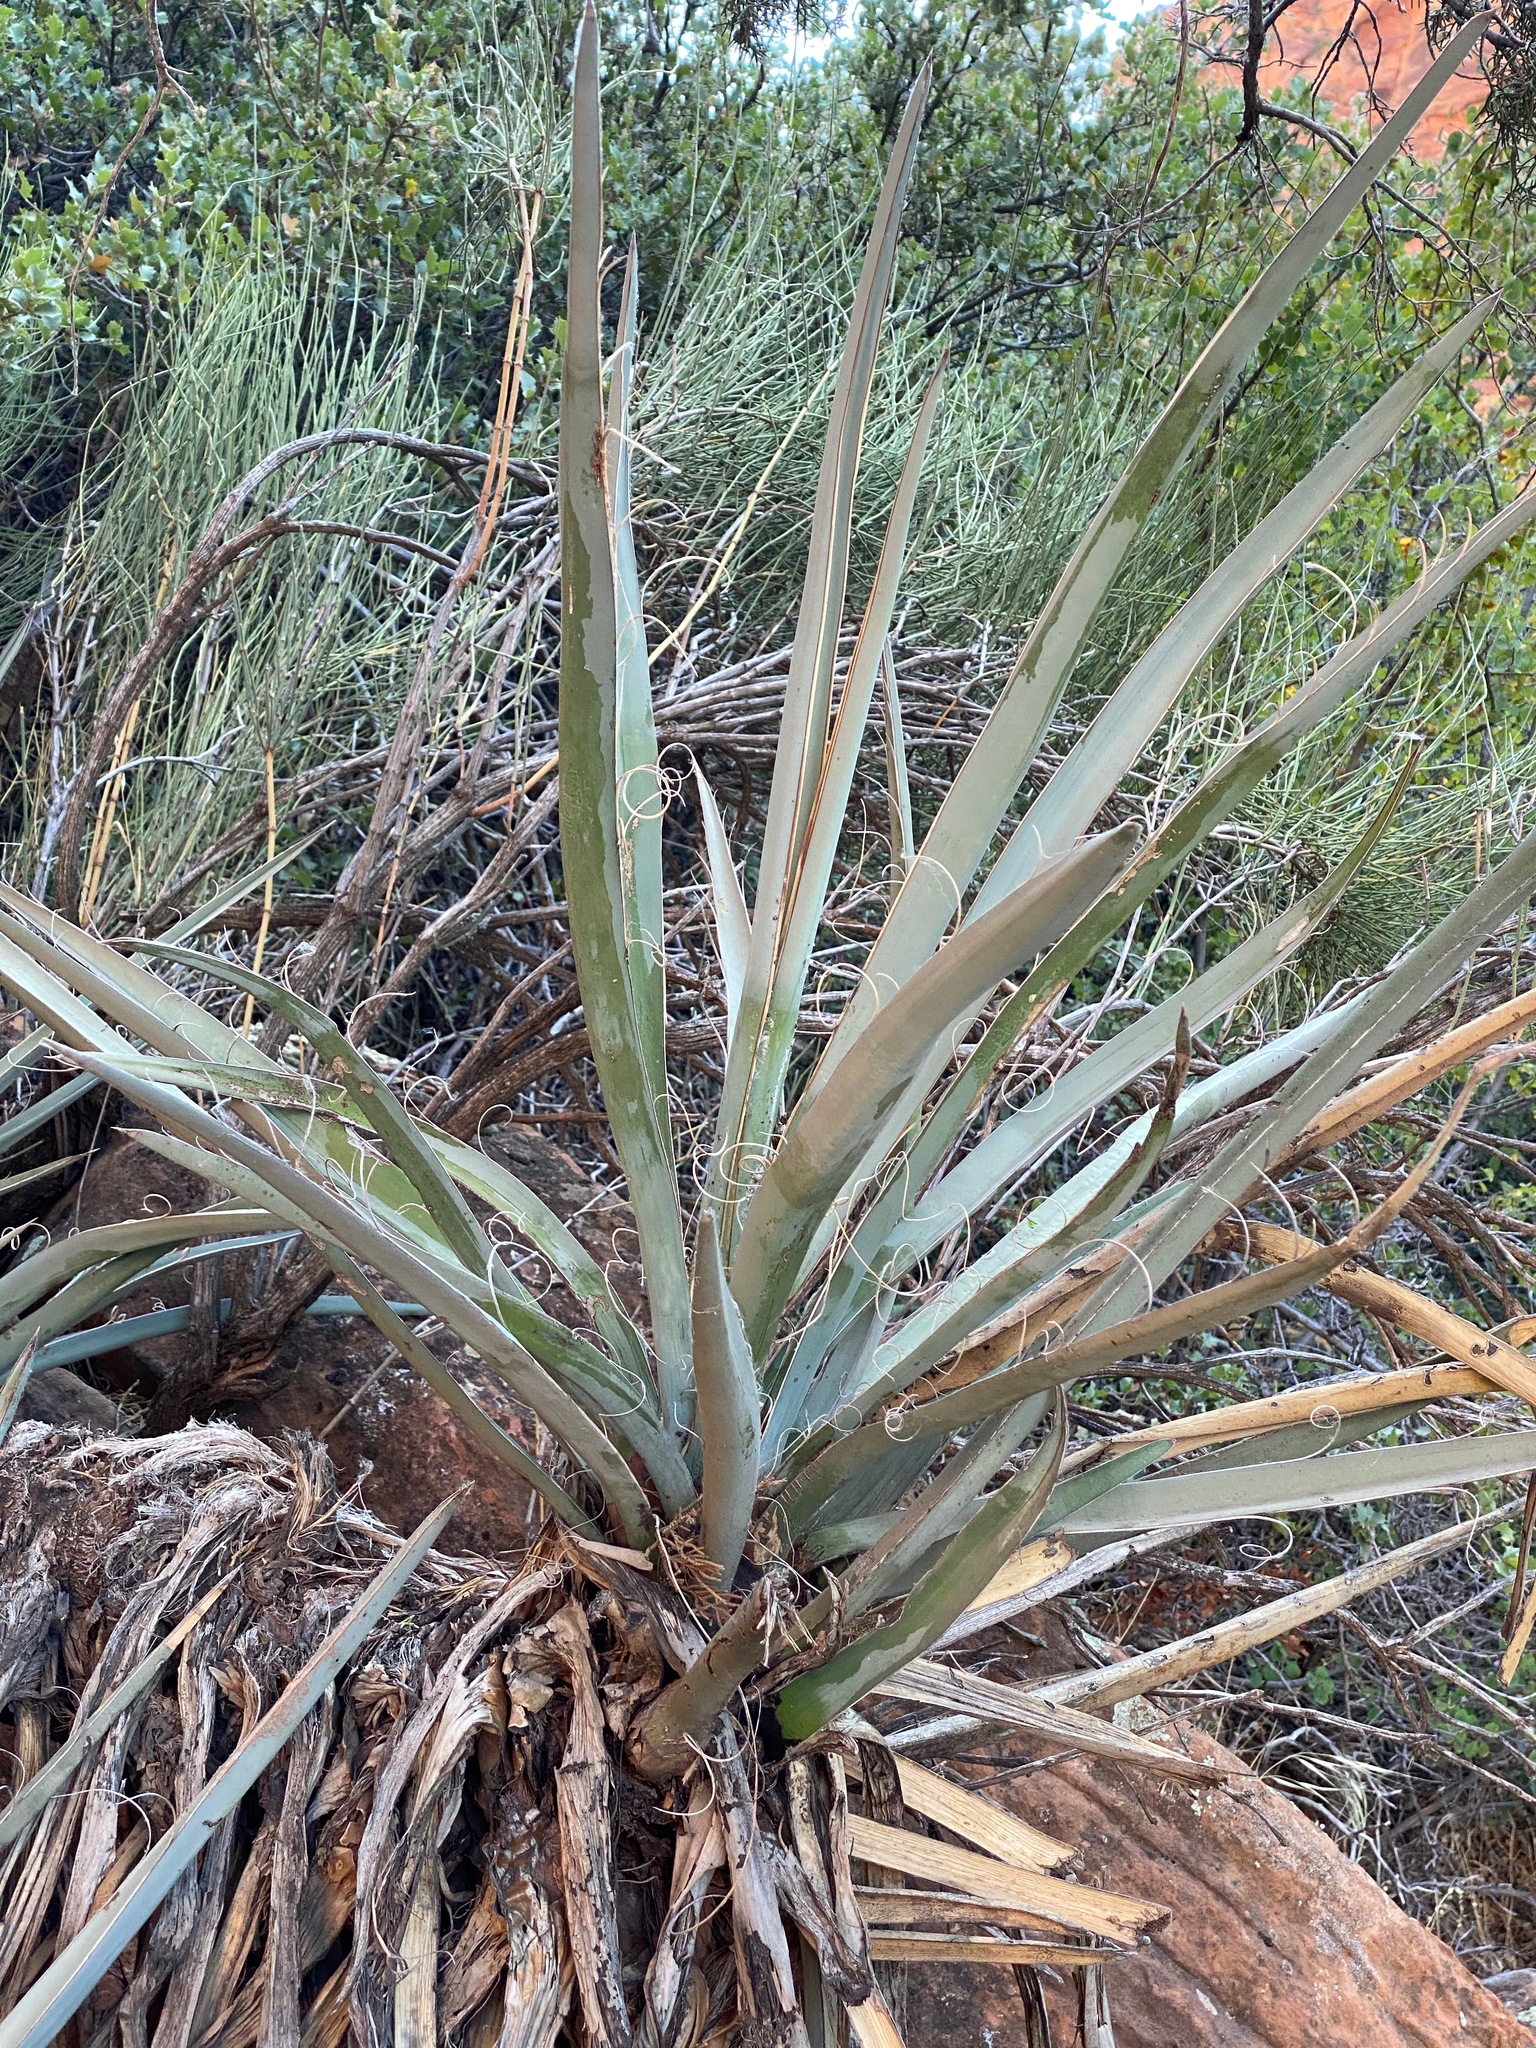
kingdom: Plantae
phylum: Tracheophyta
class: Liliopsida
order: Asparagales
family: Asparagaceae
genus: Yucca
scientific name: Yucca baccata
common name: Banana yucca
